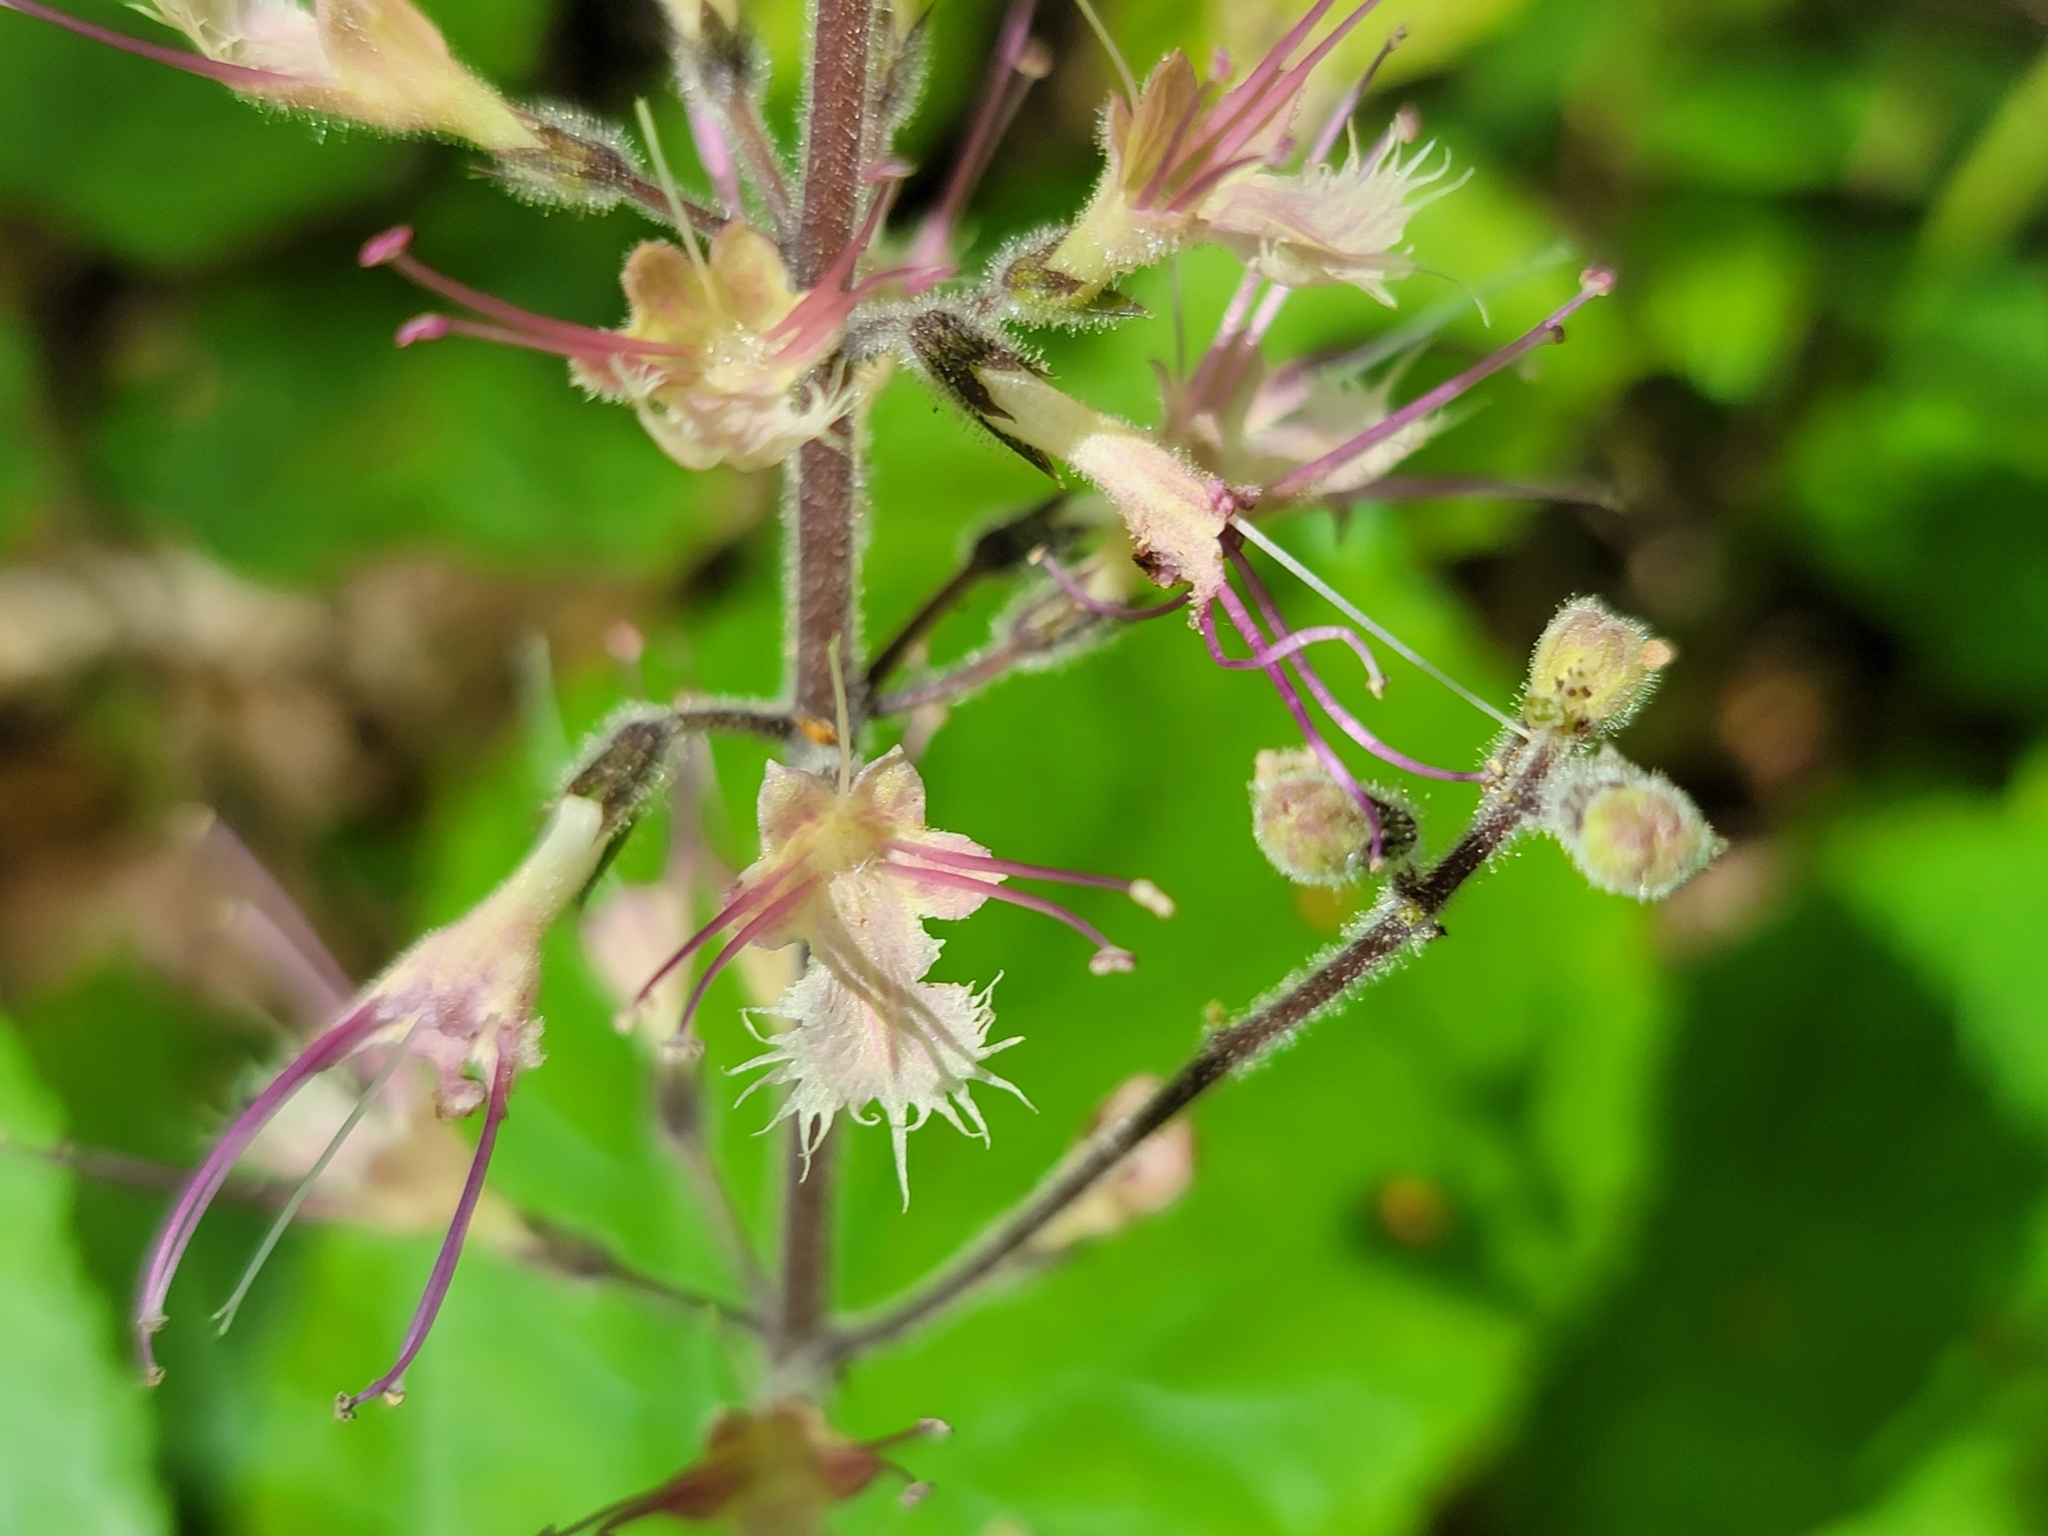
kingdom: Plantae
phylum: Tracheophyta
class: Magnoliopsida
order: Lamiales
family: Lamiaceae
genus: Collinsonia
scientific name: Collinsonia verticillata
